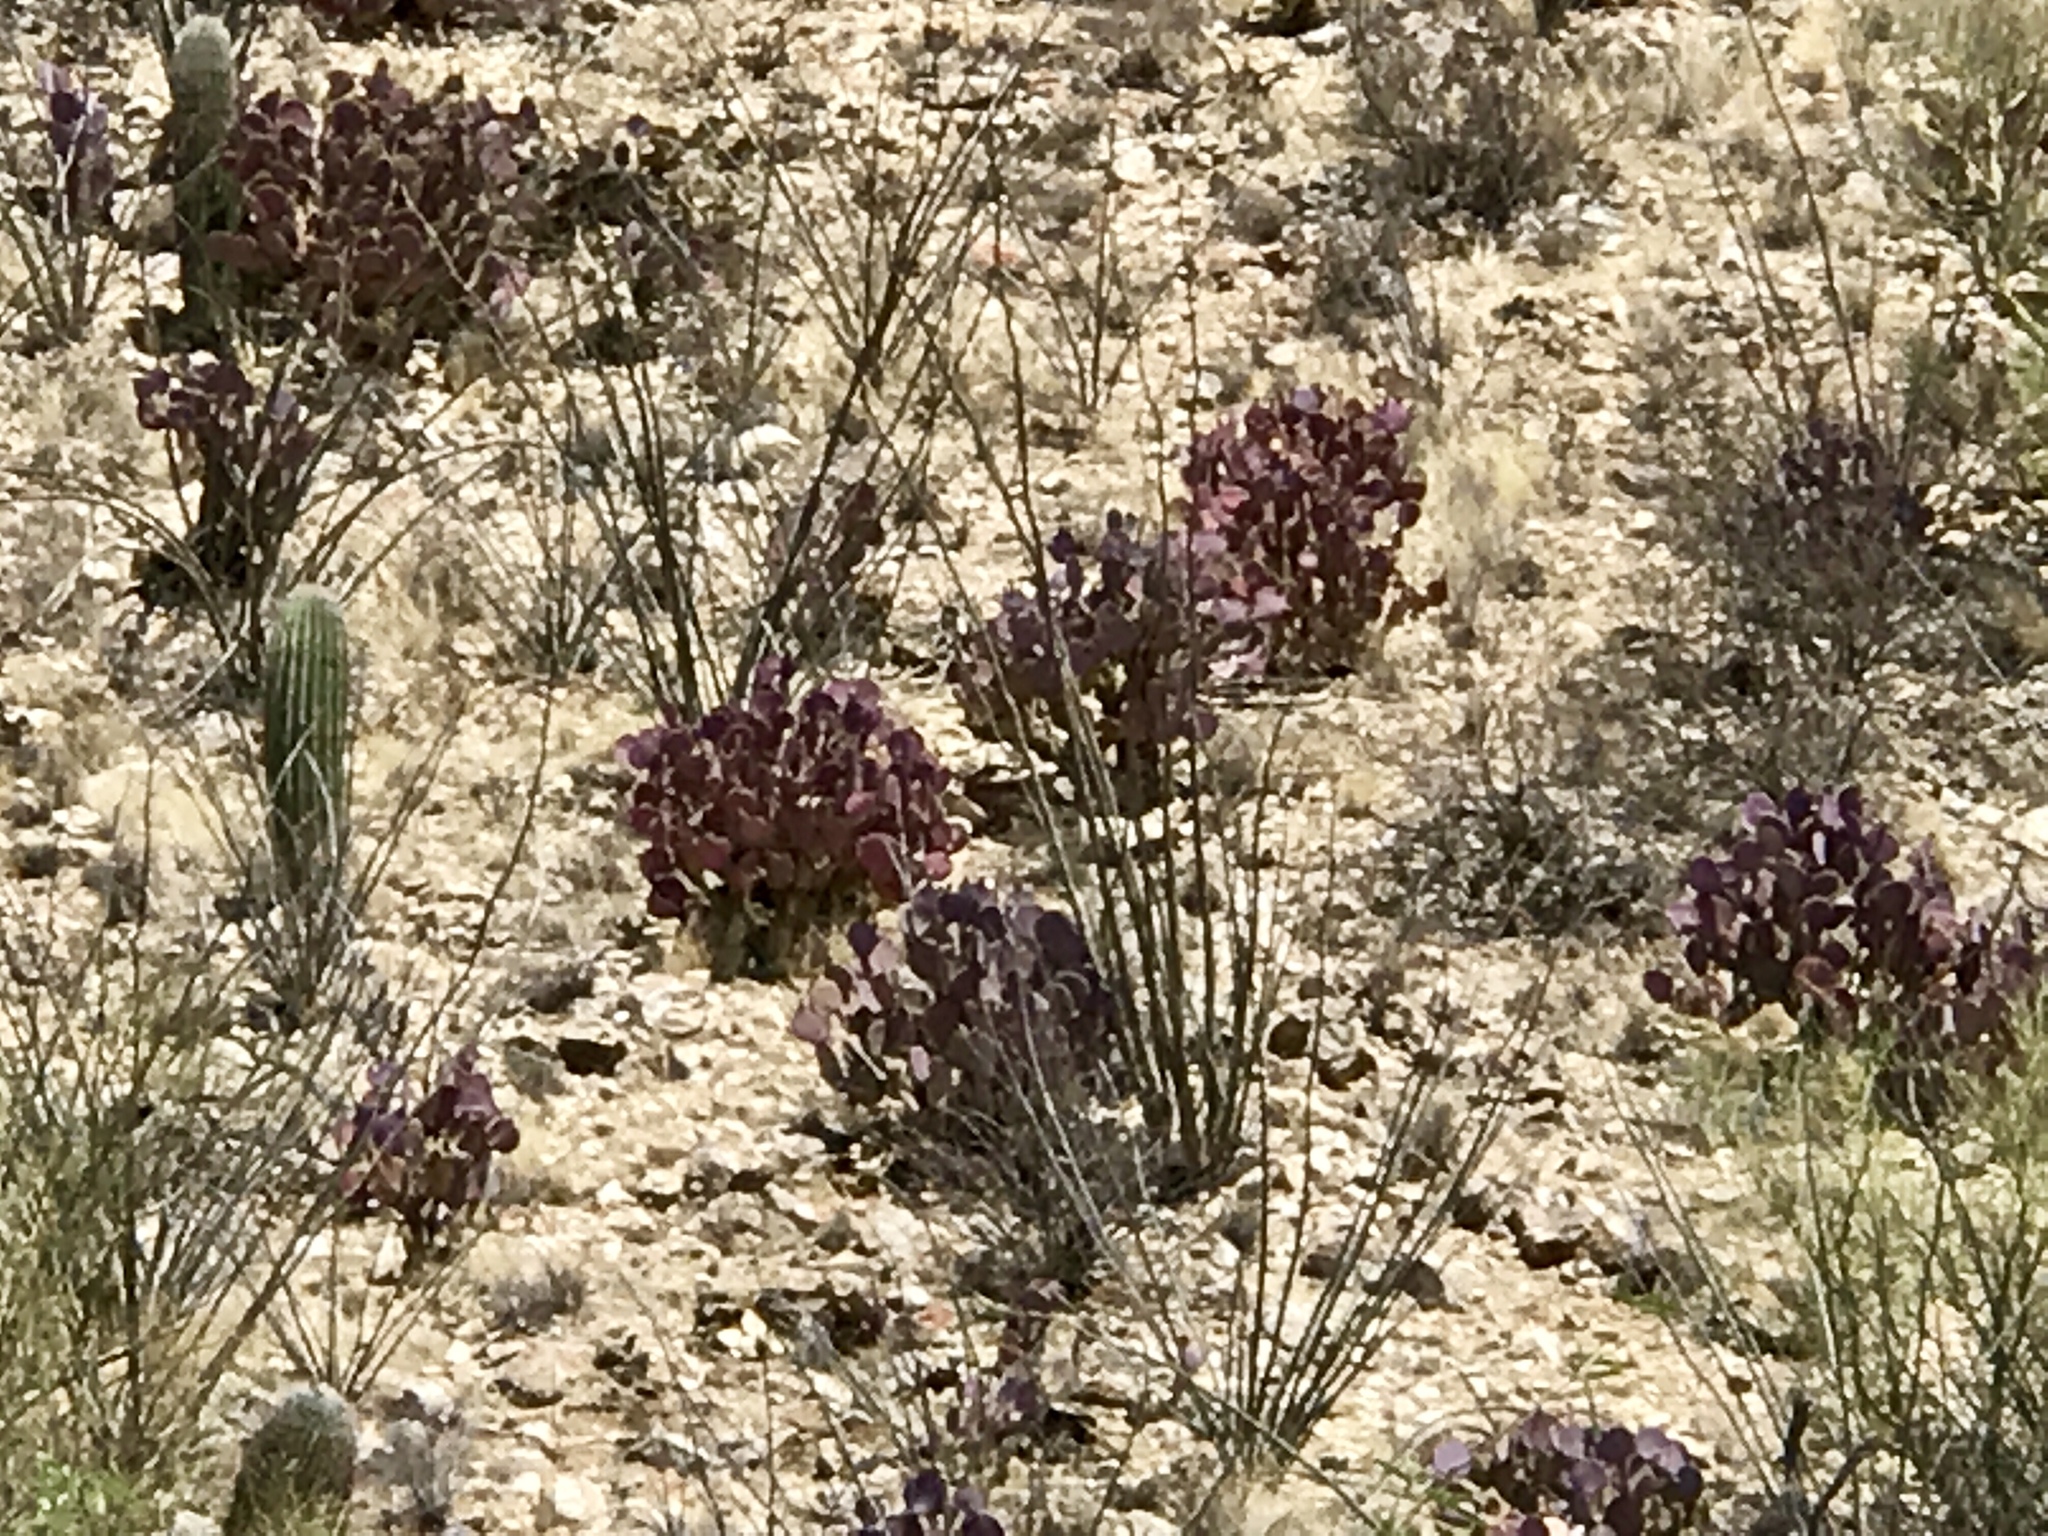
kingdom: Plantae
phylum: Tracheophyta
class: Magnoliopsida
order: Caryophyllales
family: Cactaceae
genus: Opuntia
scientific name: Opuntia gosseliniana
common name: Violet prickly-pear
